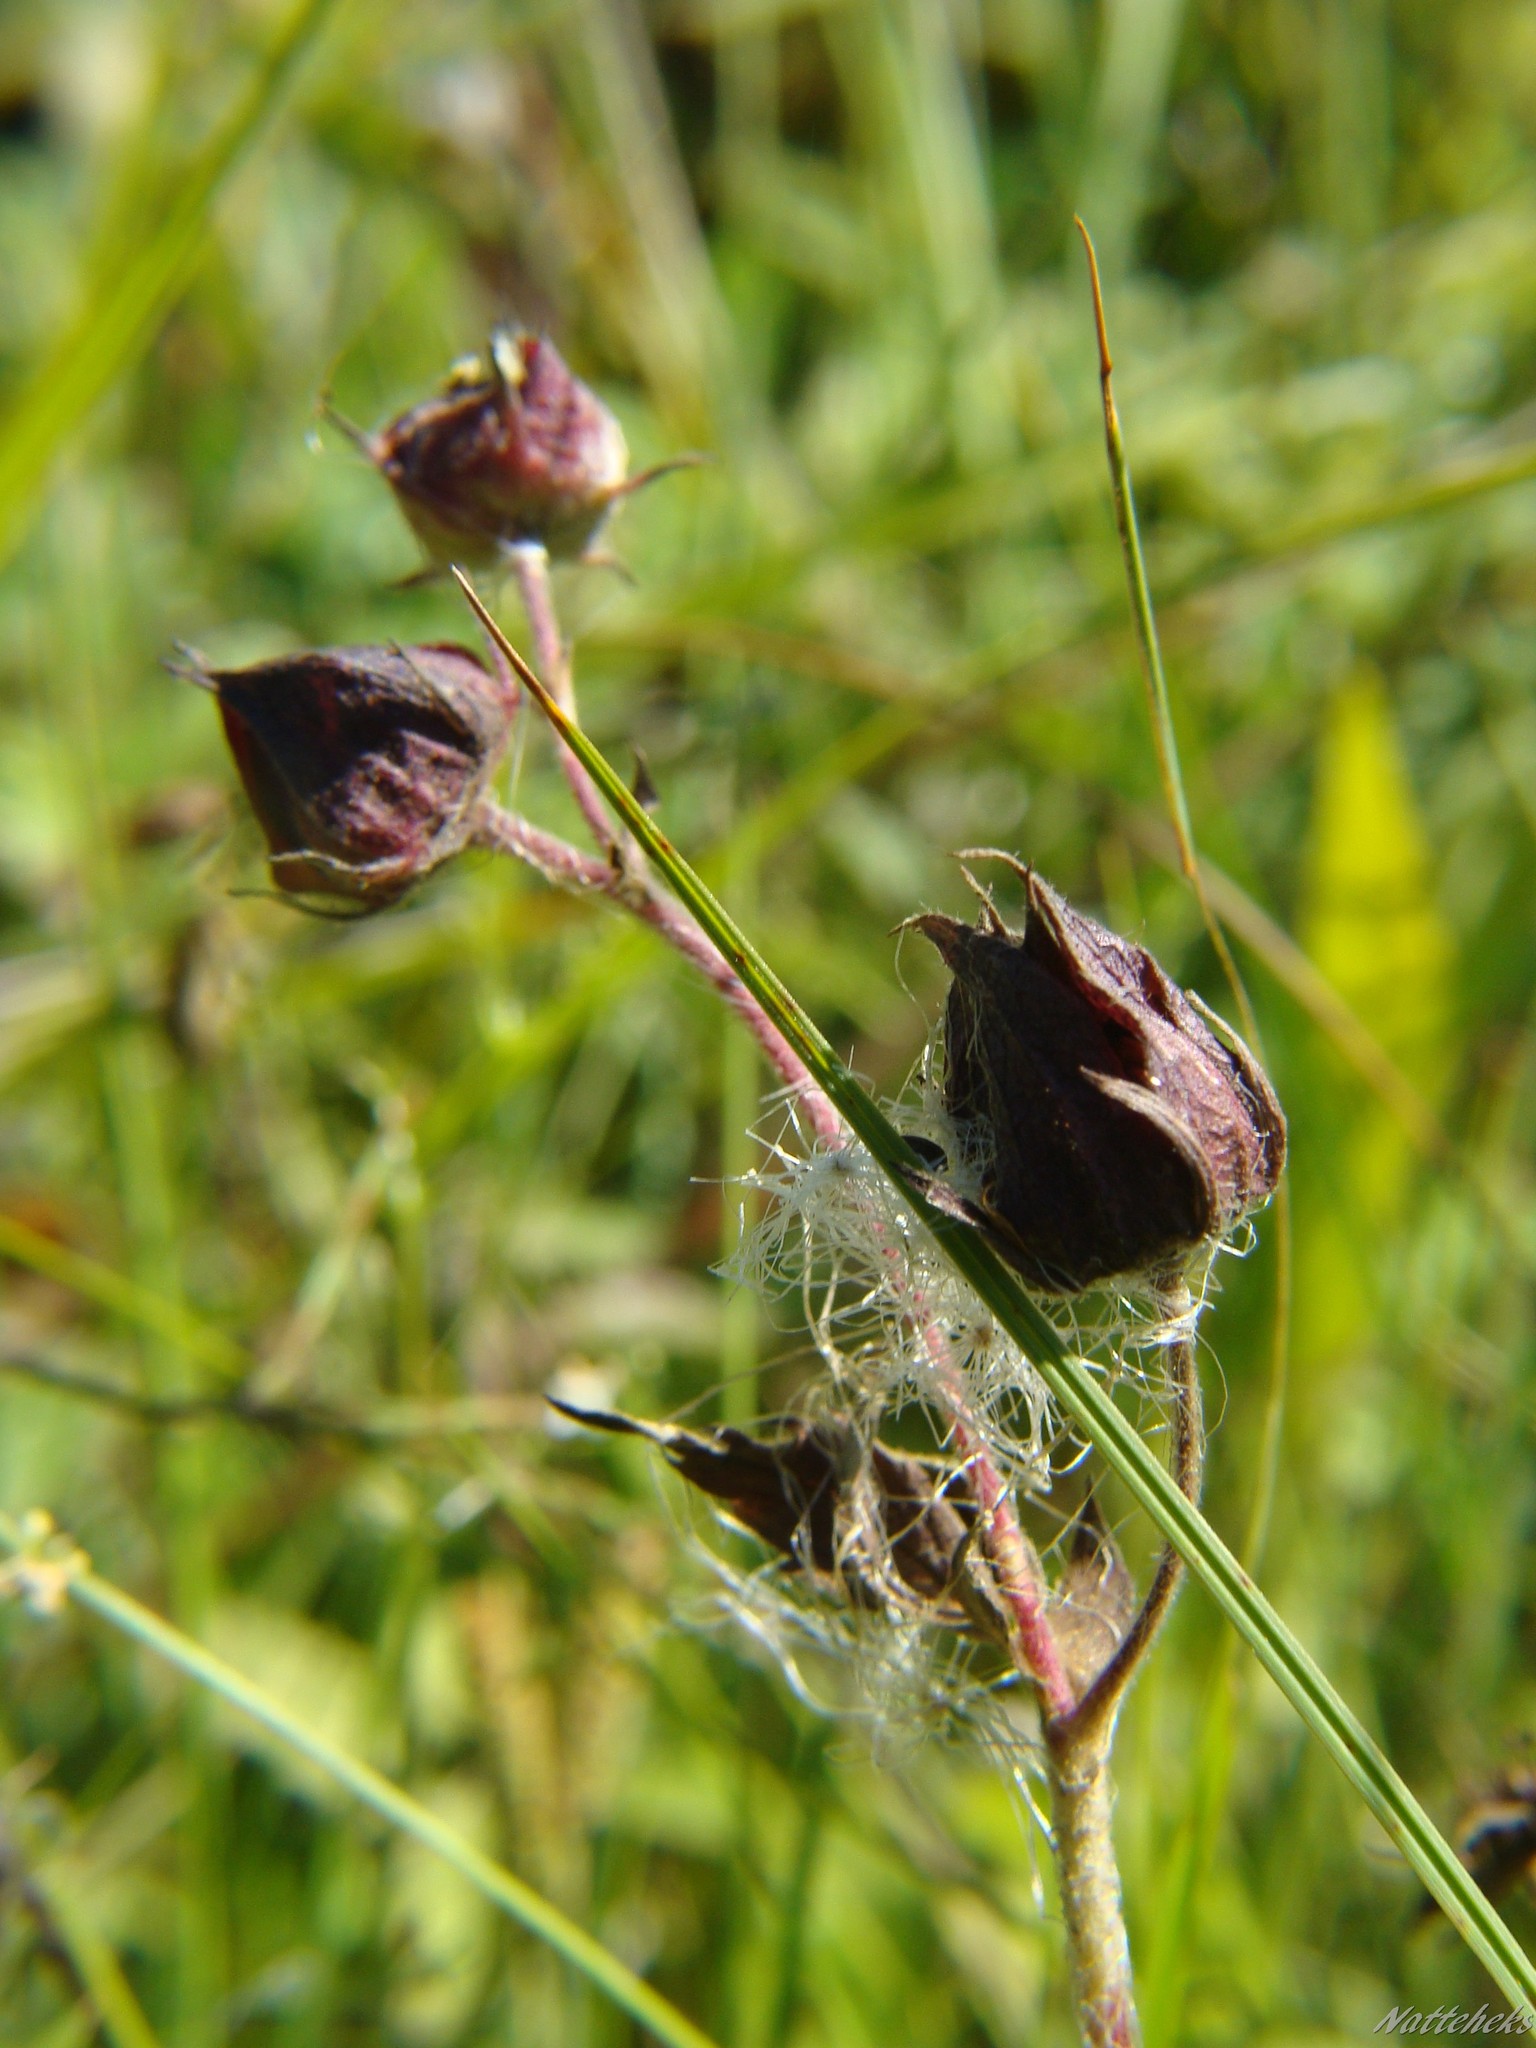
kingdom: Plantae
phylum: Tracheophyta
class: Magnoliopsida
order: Rosales
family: Rosaceae
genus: Comarum
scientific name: Comarum palustre
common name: Marsh cinquefoil
